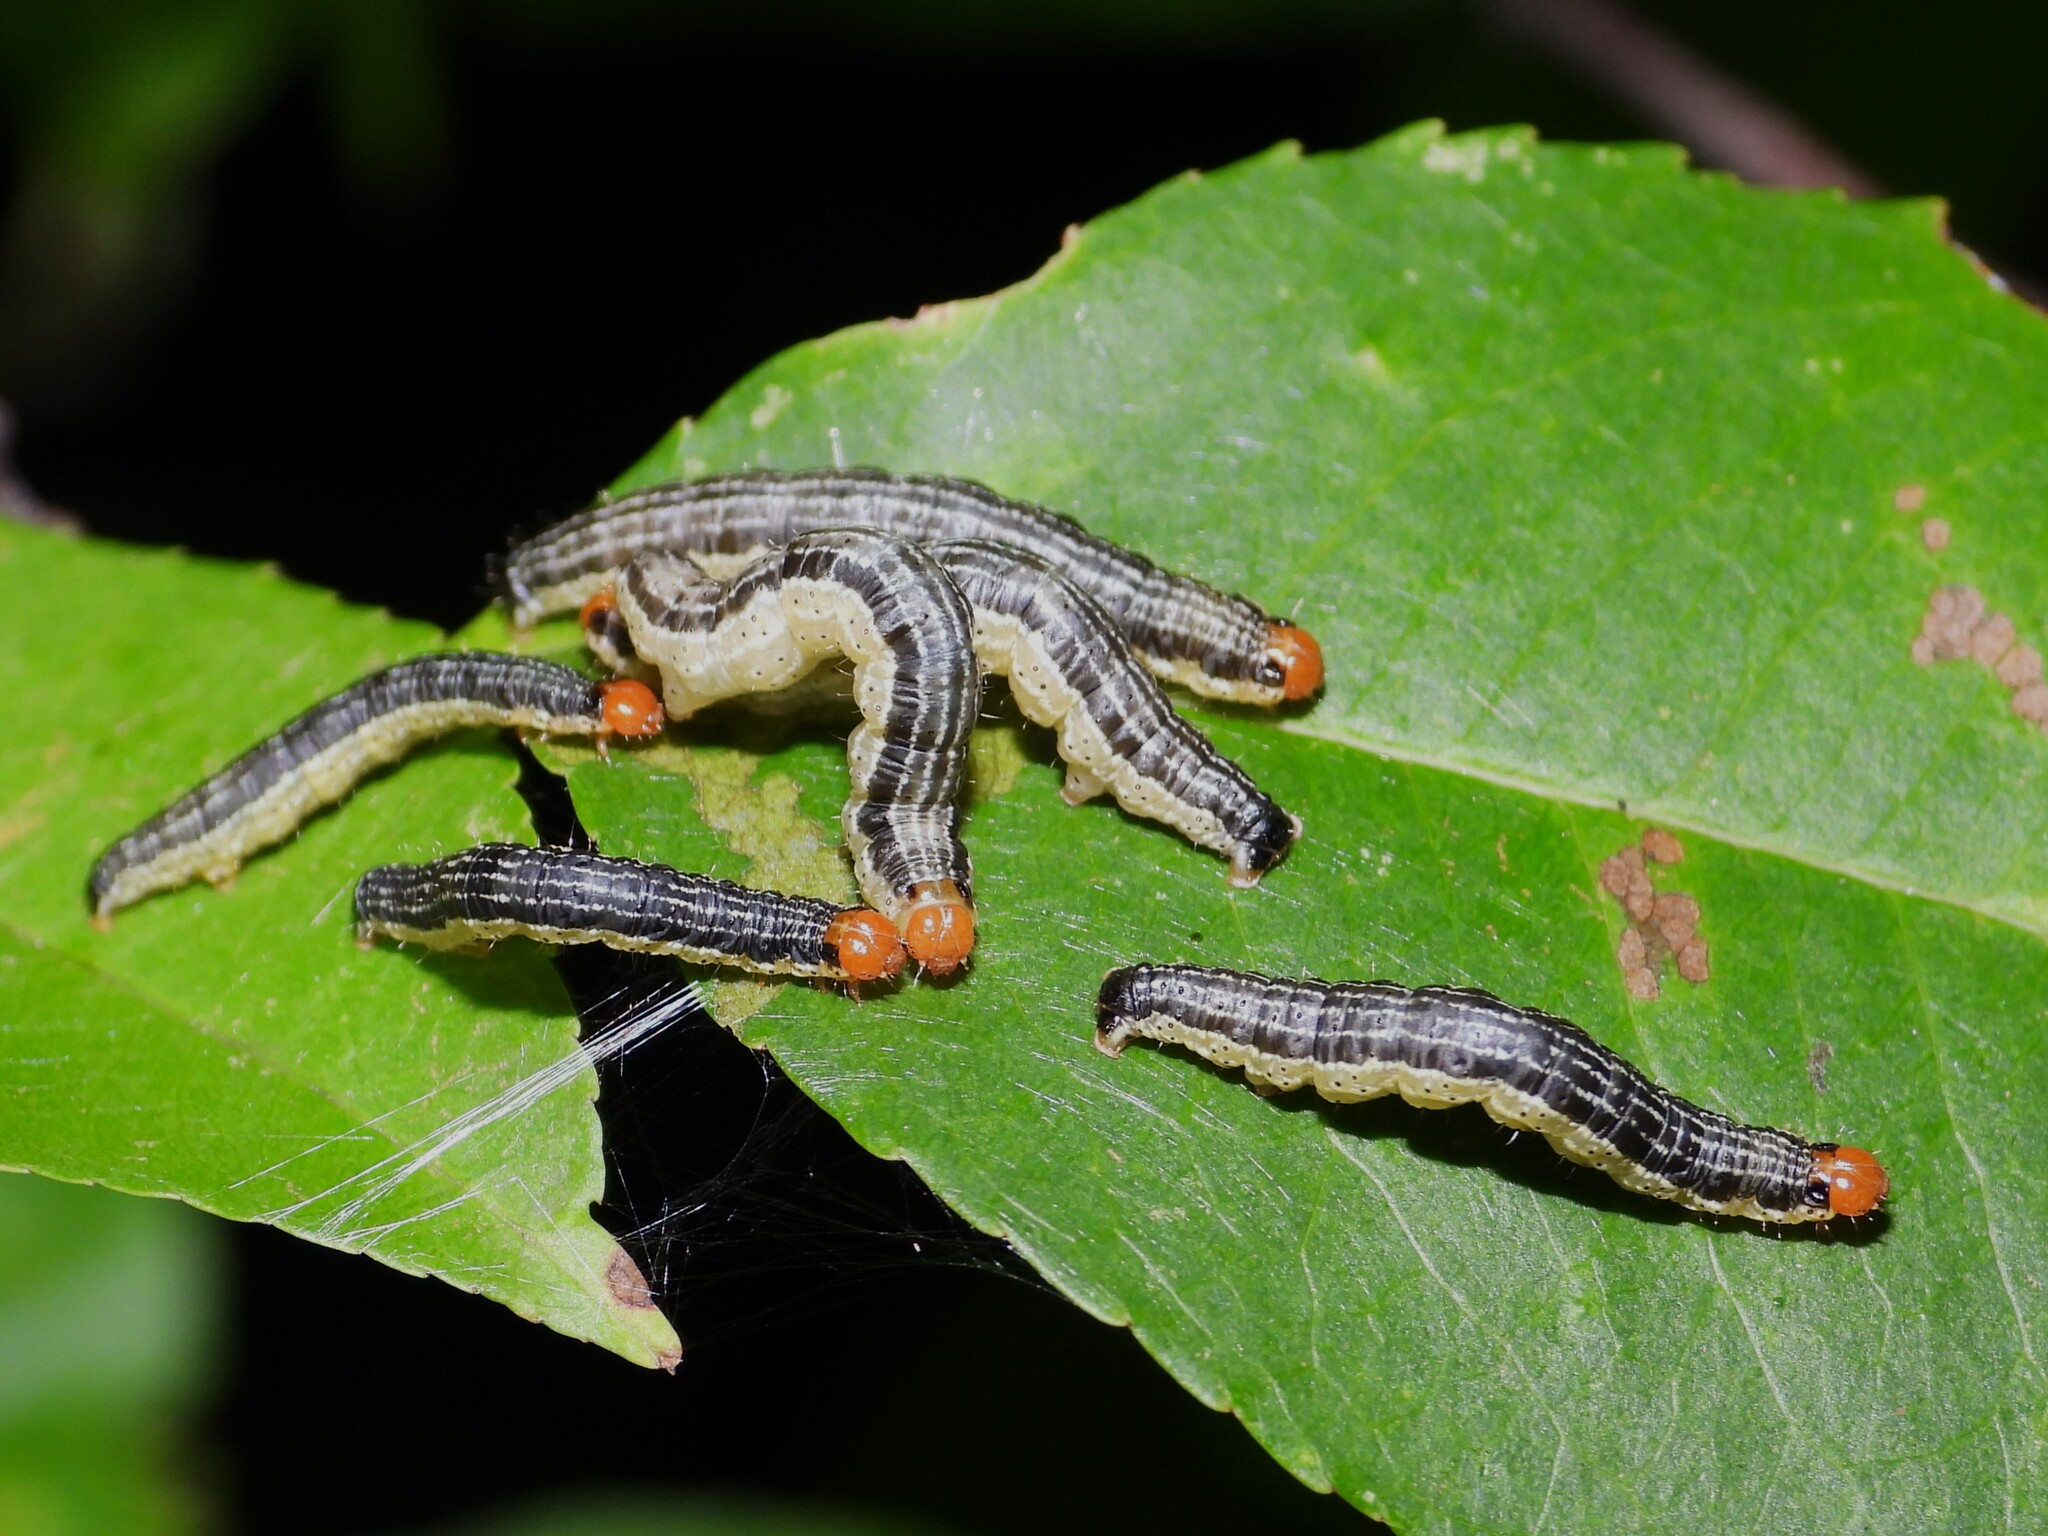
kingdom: Animalia
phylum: Arthropoda
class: Insecta
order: Lepidoptera
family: Geometridae
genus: Rheumaptera
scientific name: Rheumaptera prunivorata
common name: Cherry scallop shell moth
